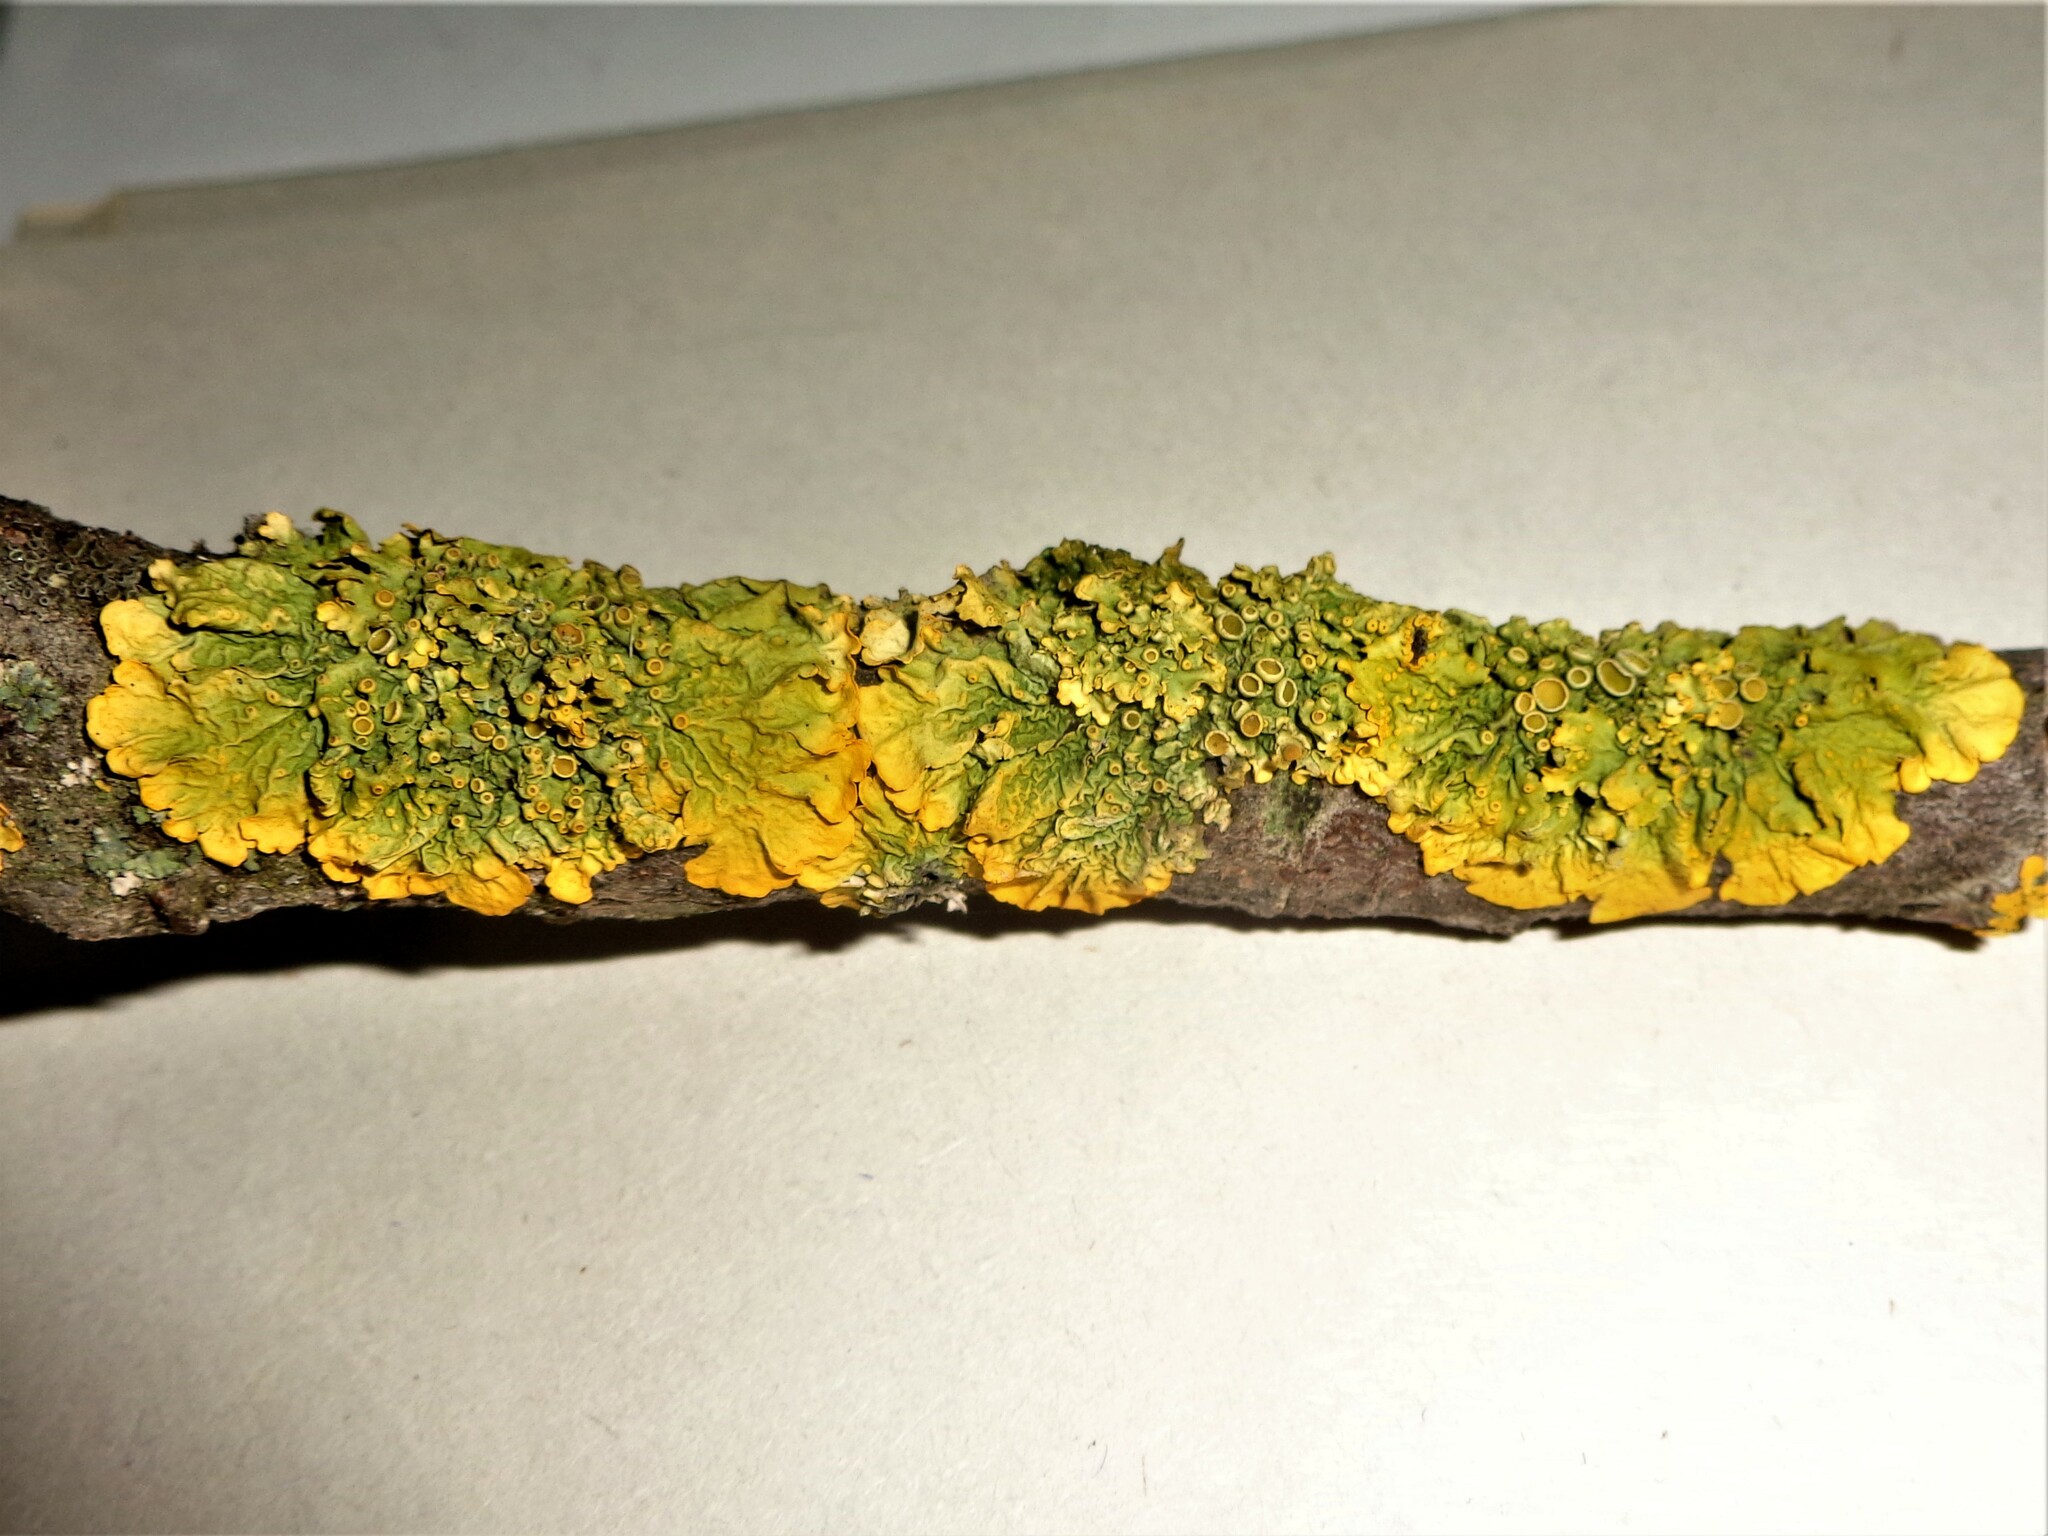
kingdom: Fungi
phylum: Ascomycota
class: Lecanoromycetes
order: Teloschistales
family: Teloschistaceae
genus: Xanthoria
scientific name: Xanthoria parietina
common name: Common orange lichen
